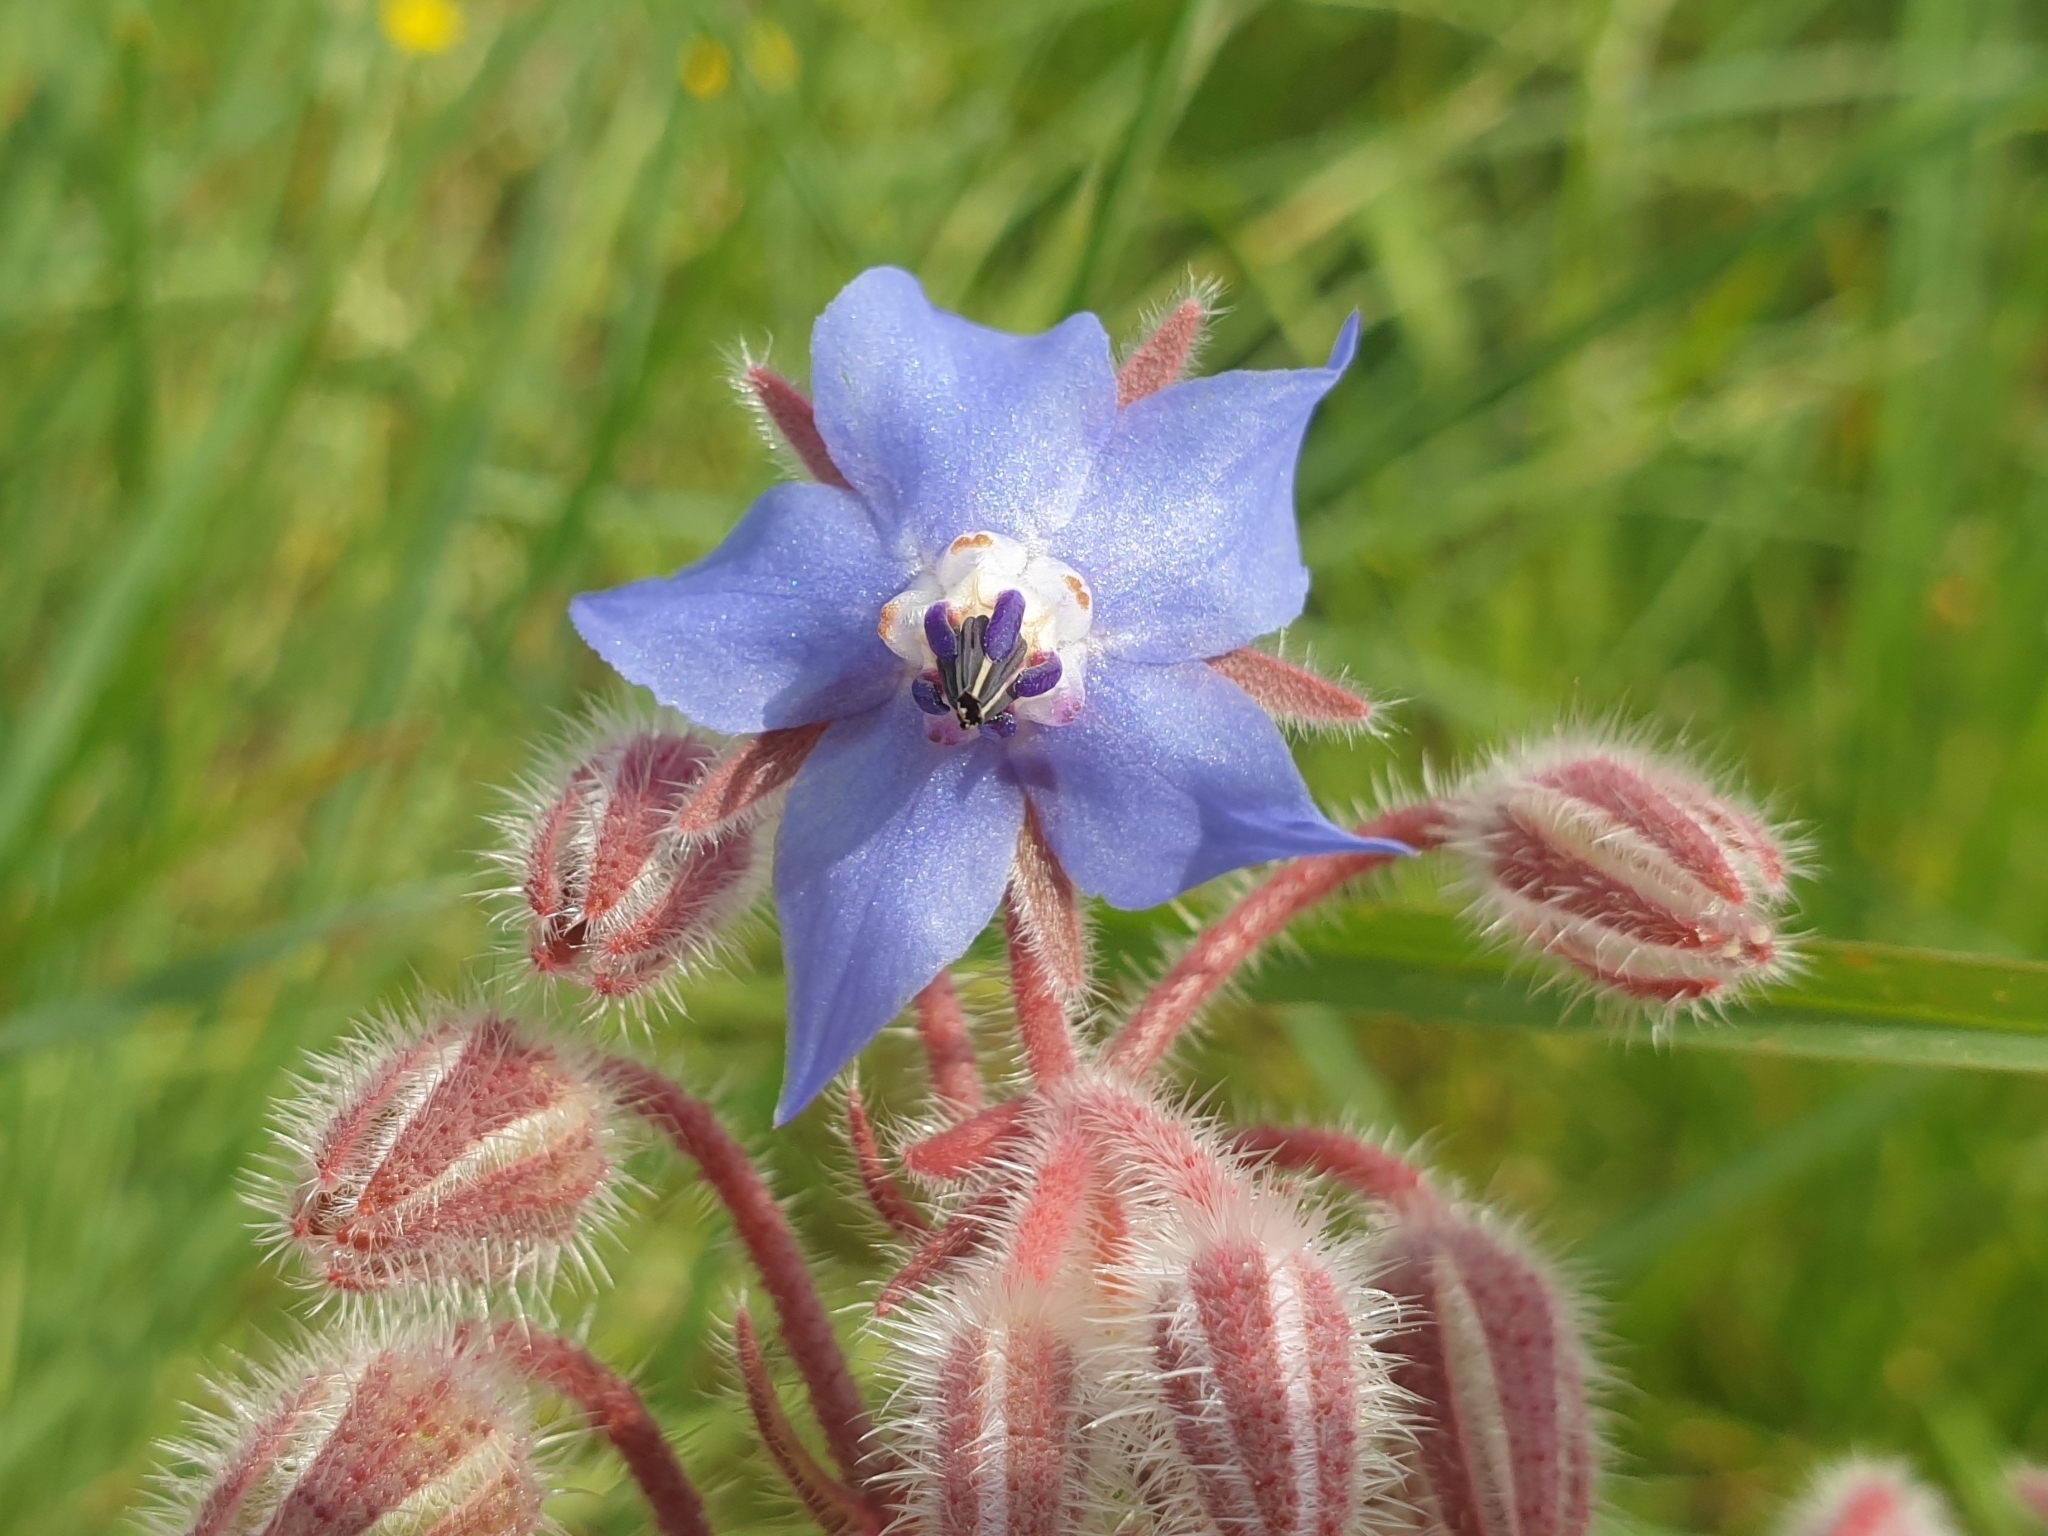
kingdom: Plantae
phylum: Tracheophyta
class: Magnoliopsida
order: Boraginales
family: Boraginaceae
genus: Borago
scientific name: Borago officinalis
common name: Borage
